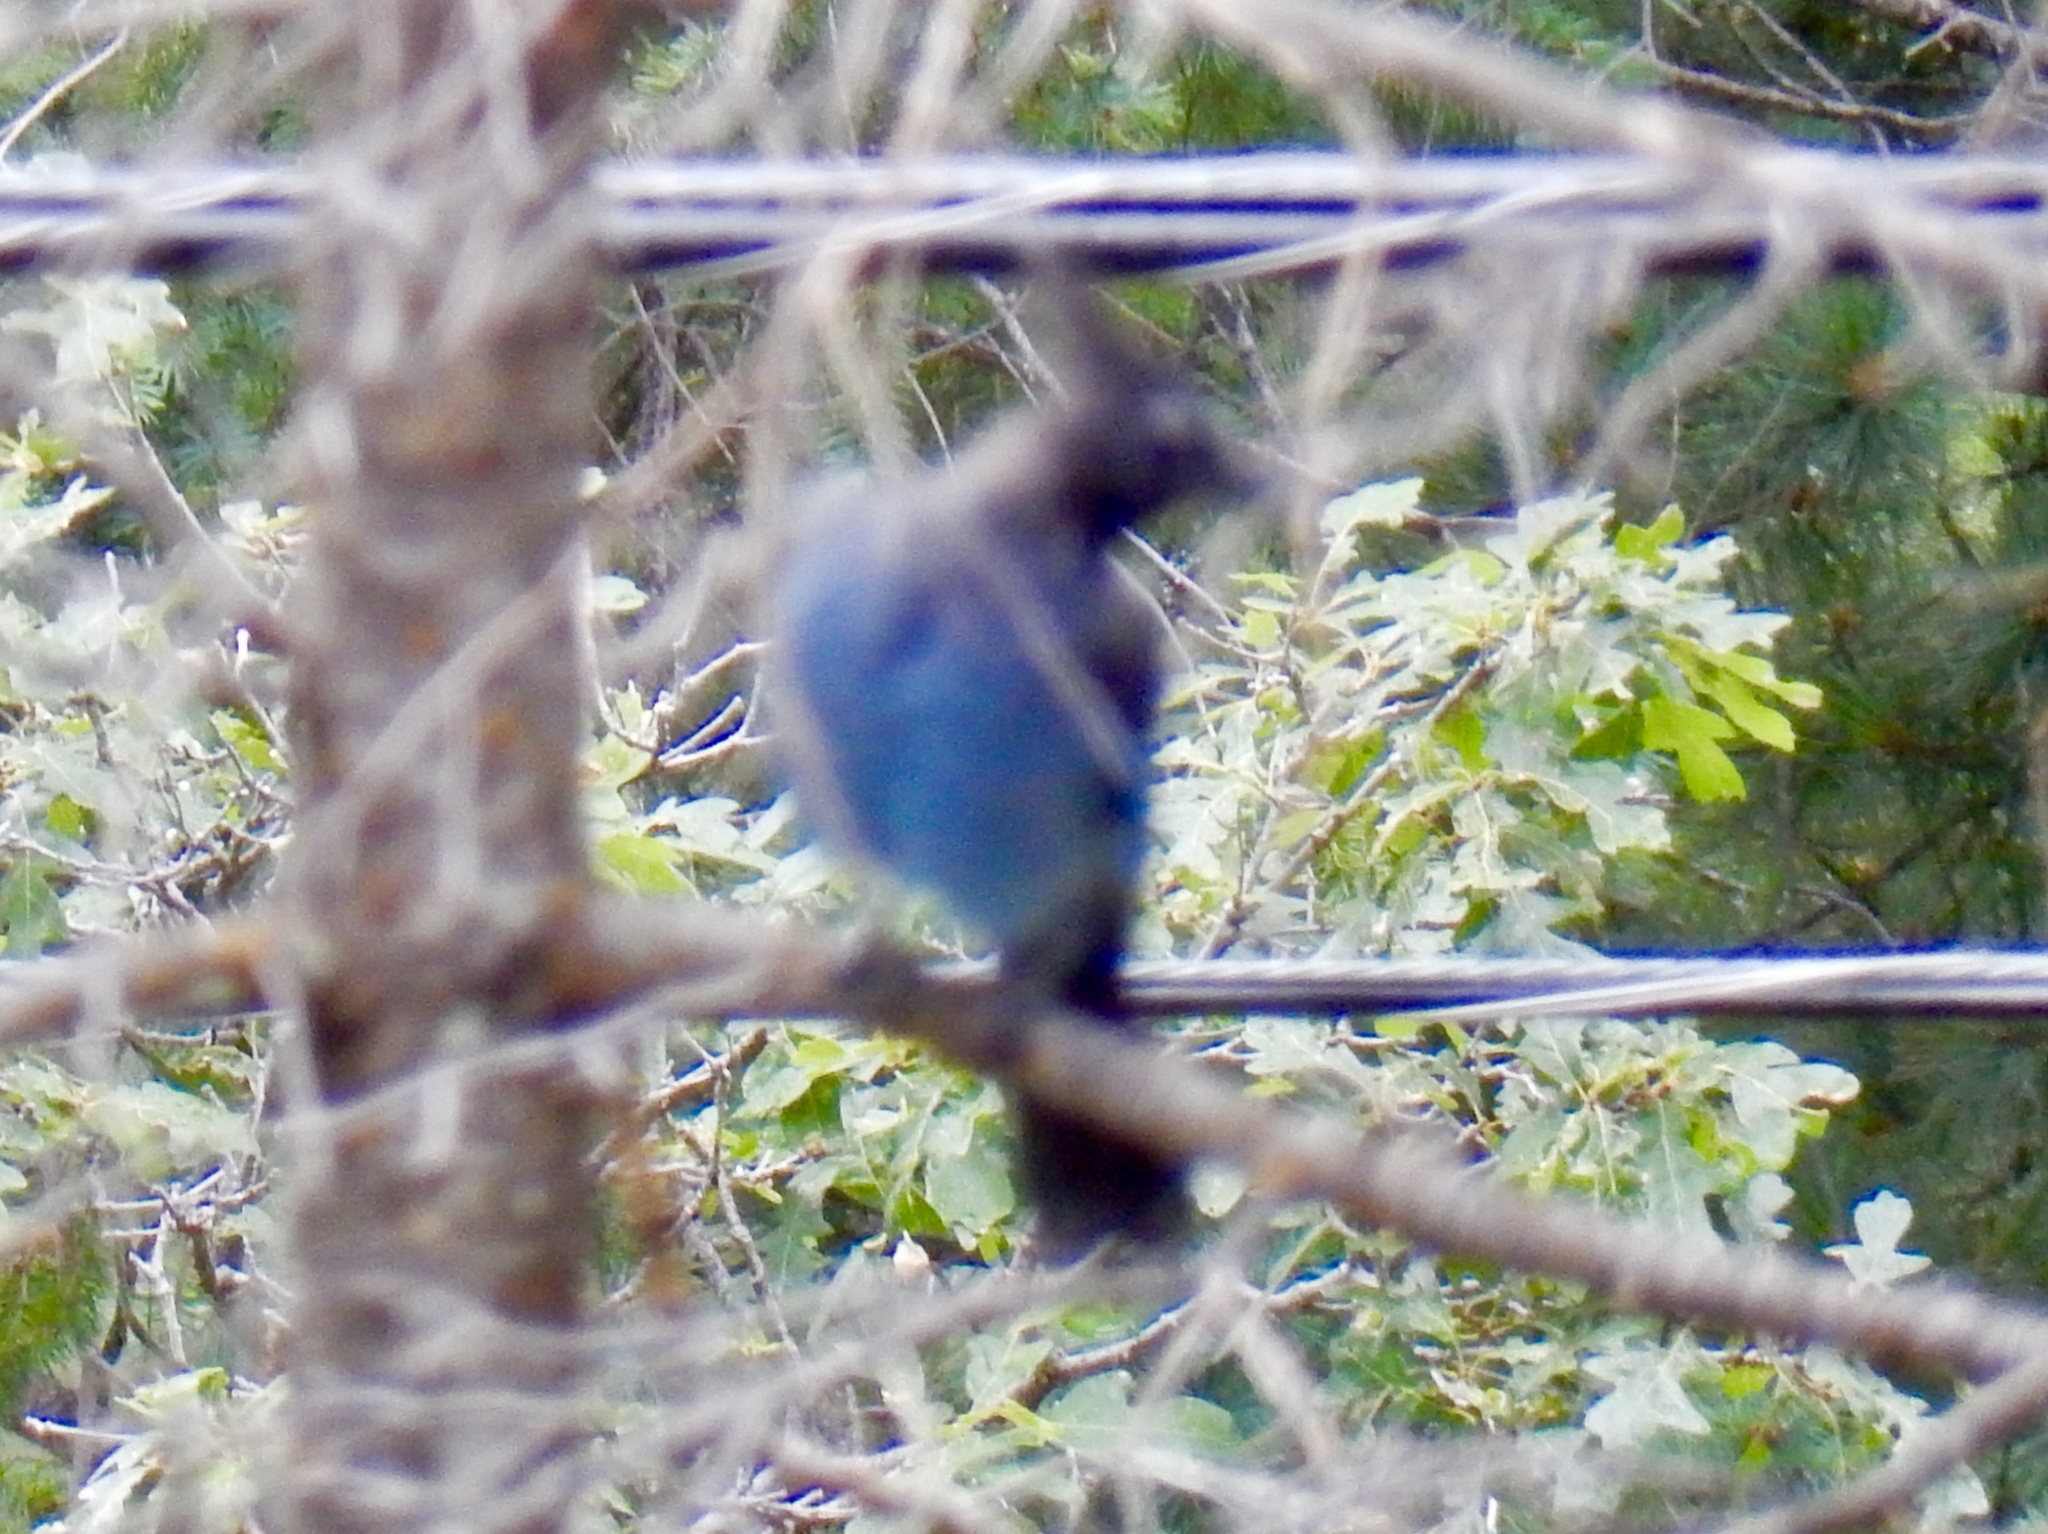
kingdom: Animalia
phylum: Chordata
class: Aves
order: Passeriformes
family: Corvidae
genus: Cyanocitta
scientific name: Cyanocitta stelleri
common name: Steller's jay
